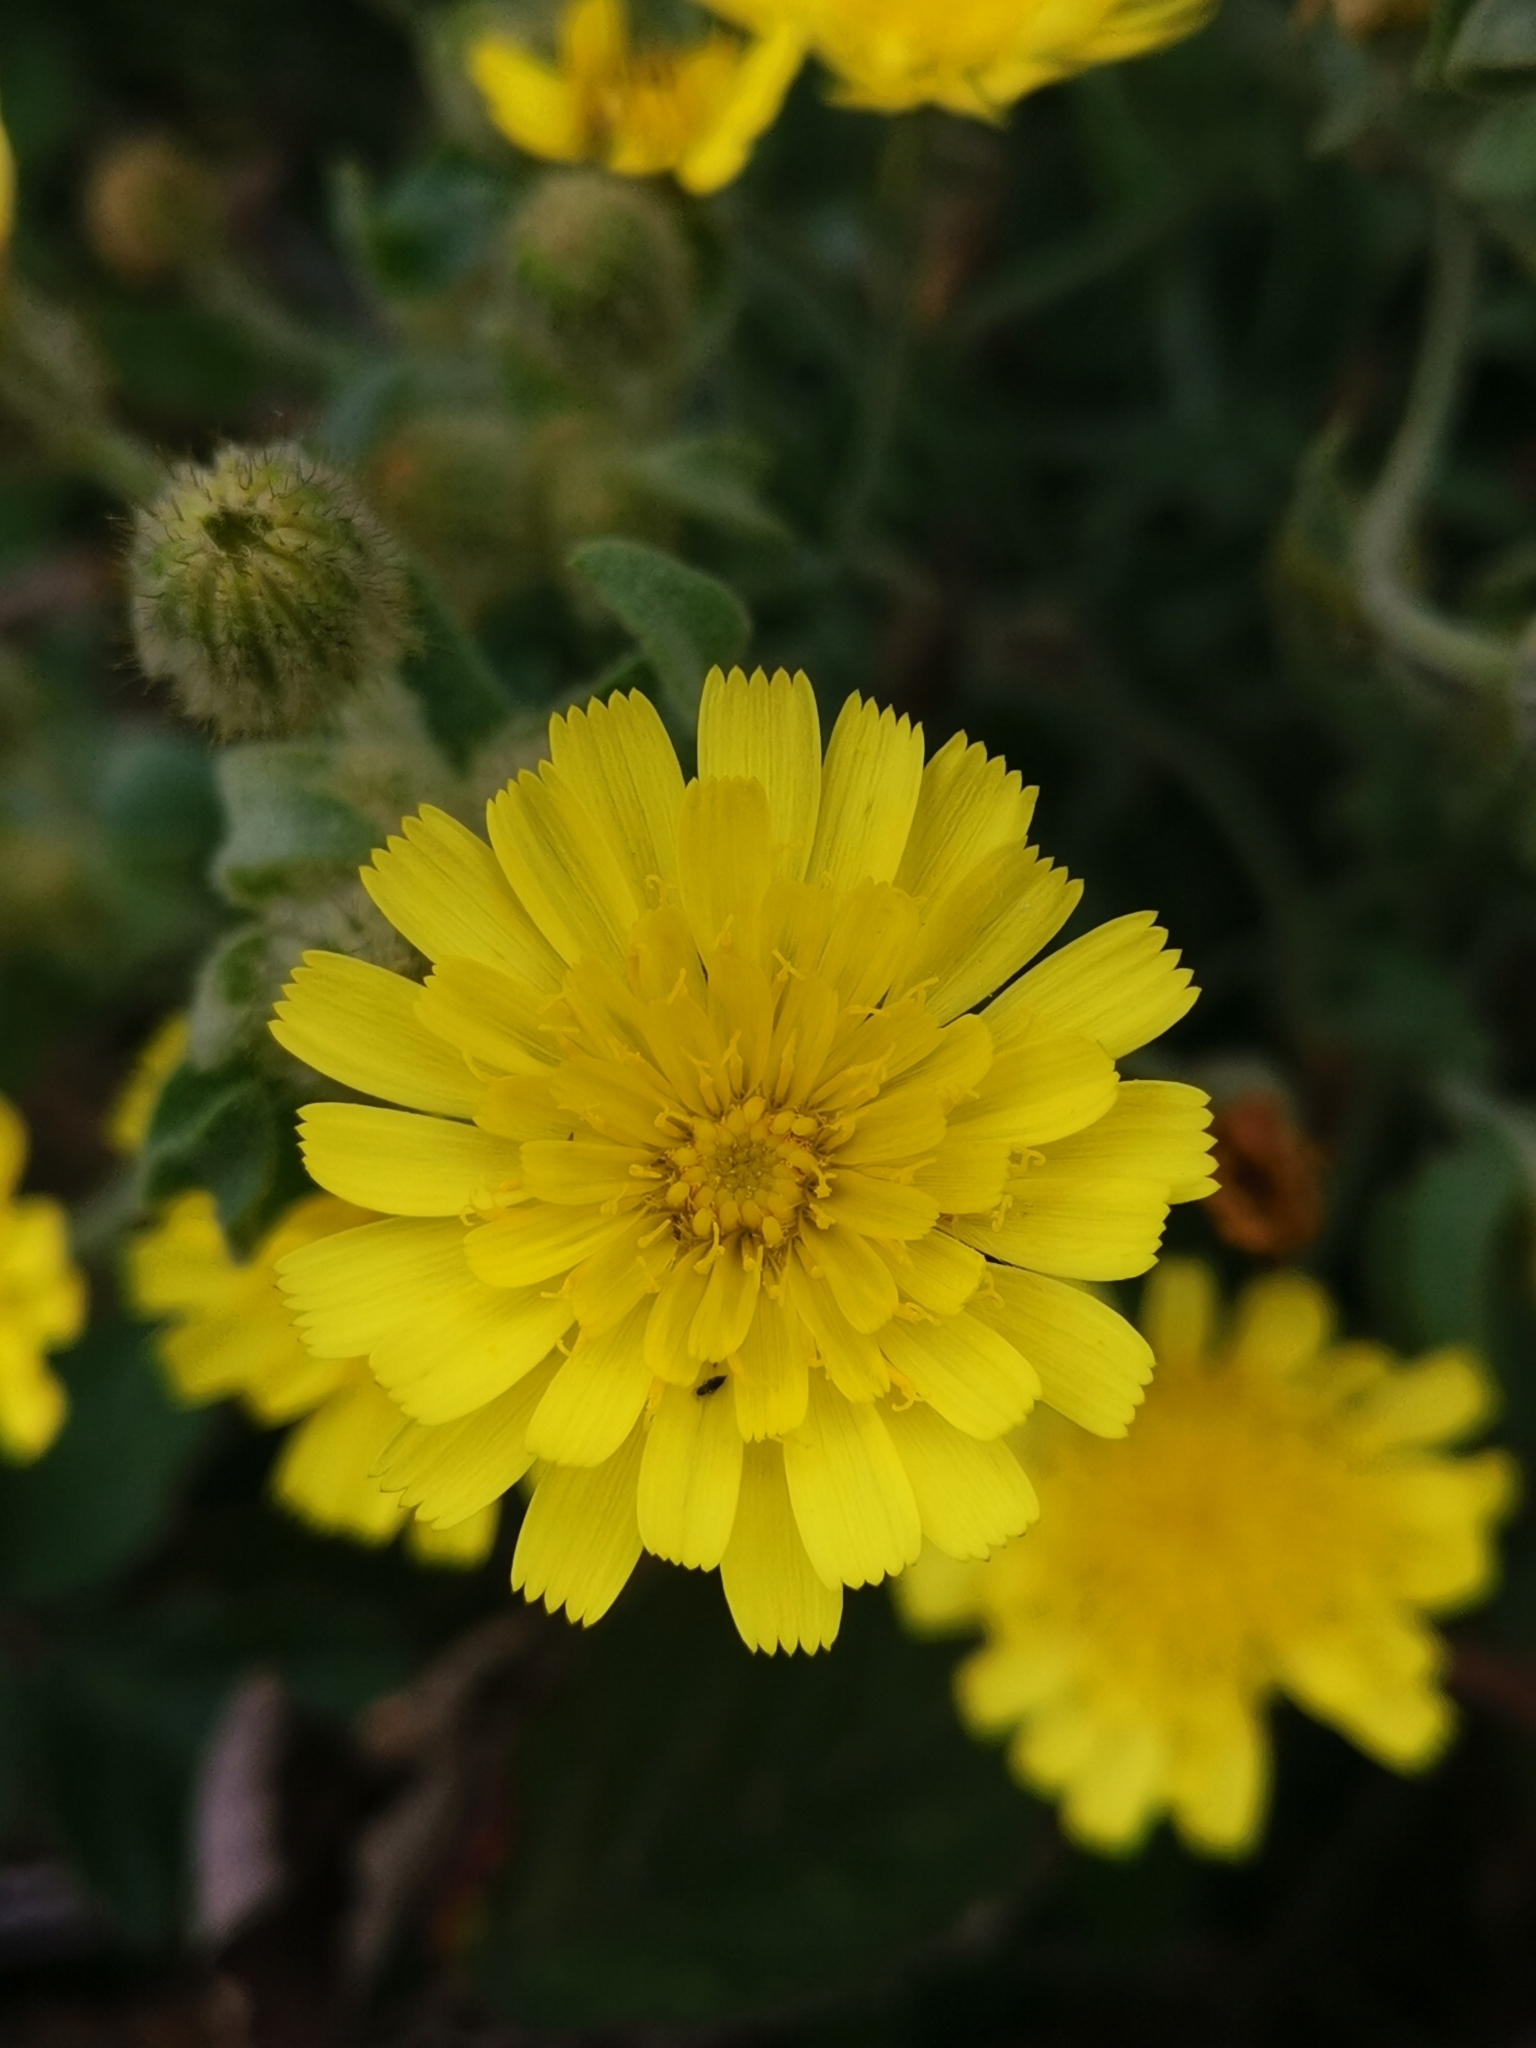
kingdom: Plantae
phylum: Tracheophyta
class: Magnoliopsida
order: Asterales
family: Asteraceae
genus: Andryala
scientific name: Andryala integrifolia
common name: Common andryala
